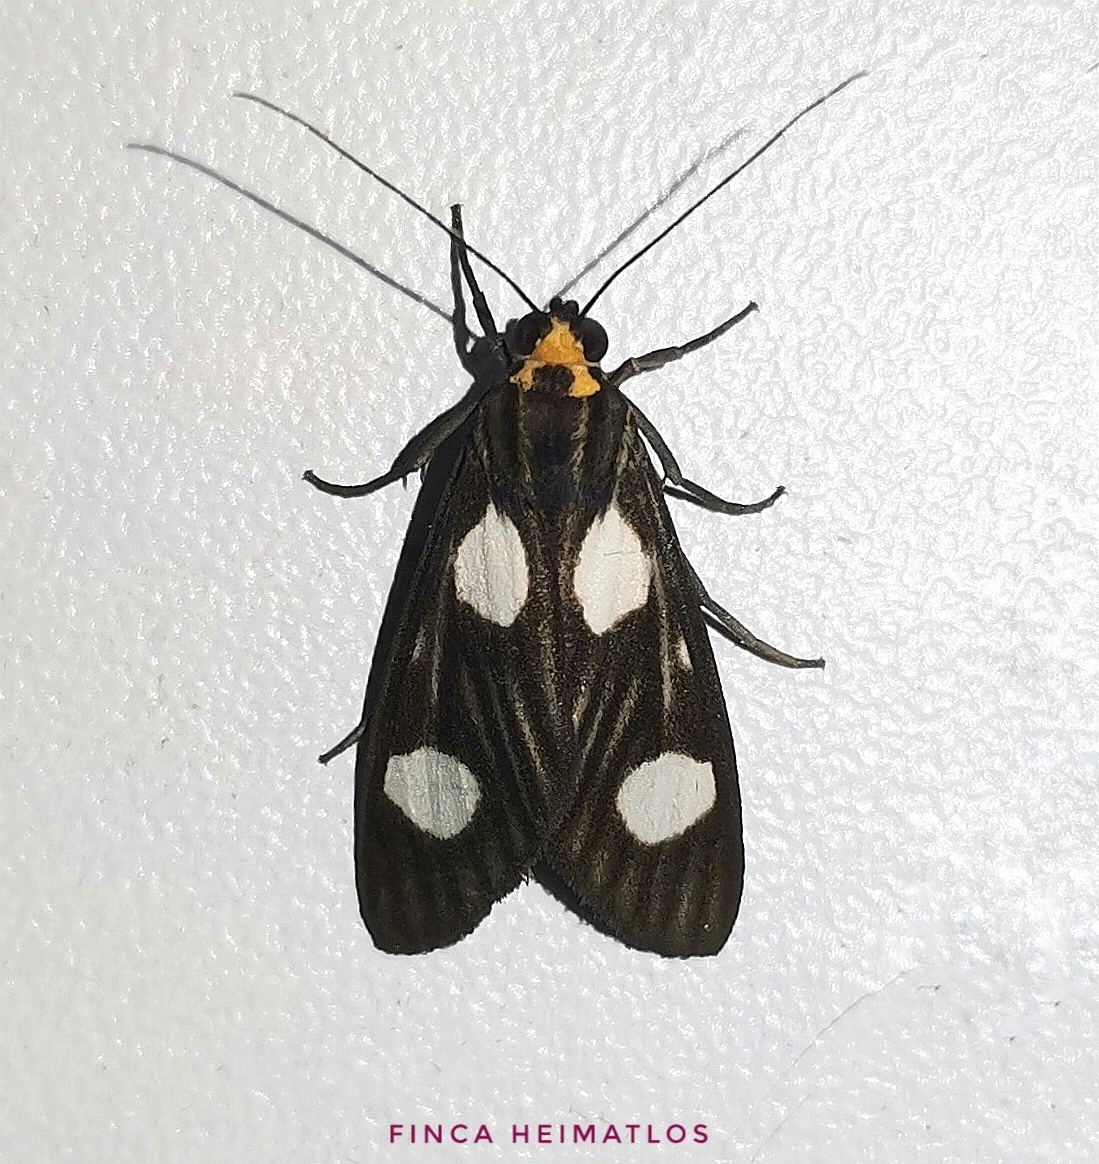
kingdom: Animalia
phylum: Arthropoda
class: Insecta
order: Lepidoptera
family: Erebidae
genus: Glaucostola
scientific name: Glaucostola binotata
